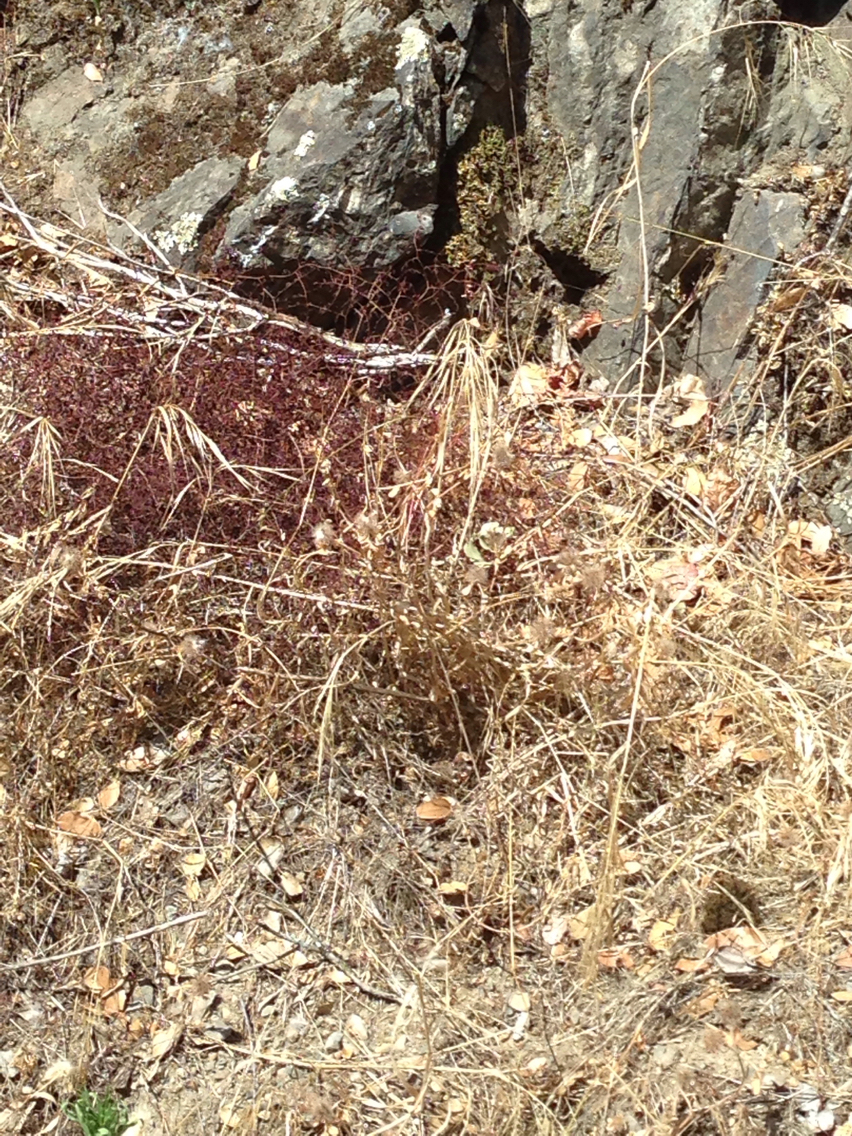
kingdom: Plantae
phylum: Tracheophyta
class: Liliopsida
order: Poales
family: Poaceae
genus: Bromus
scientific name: Bromus diandrus
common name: Ripgut brome
